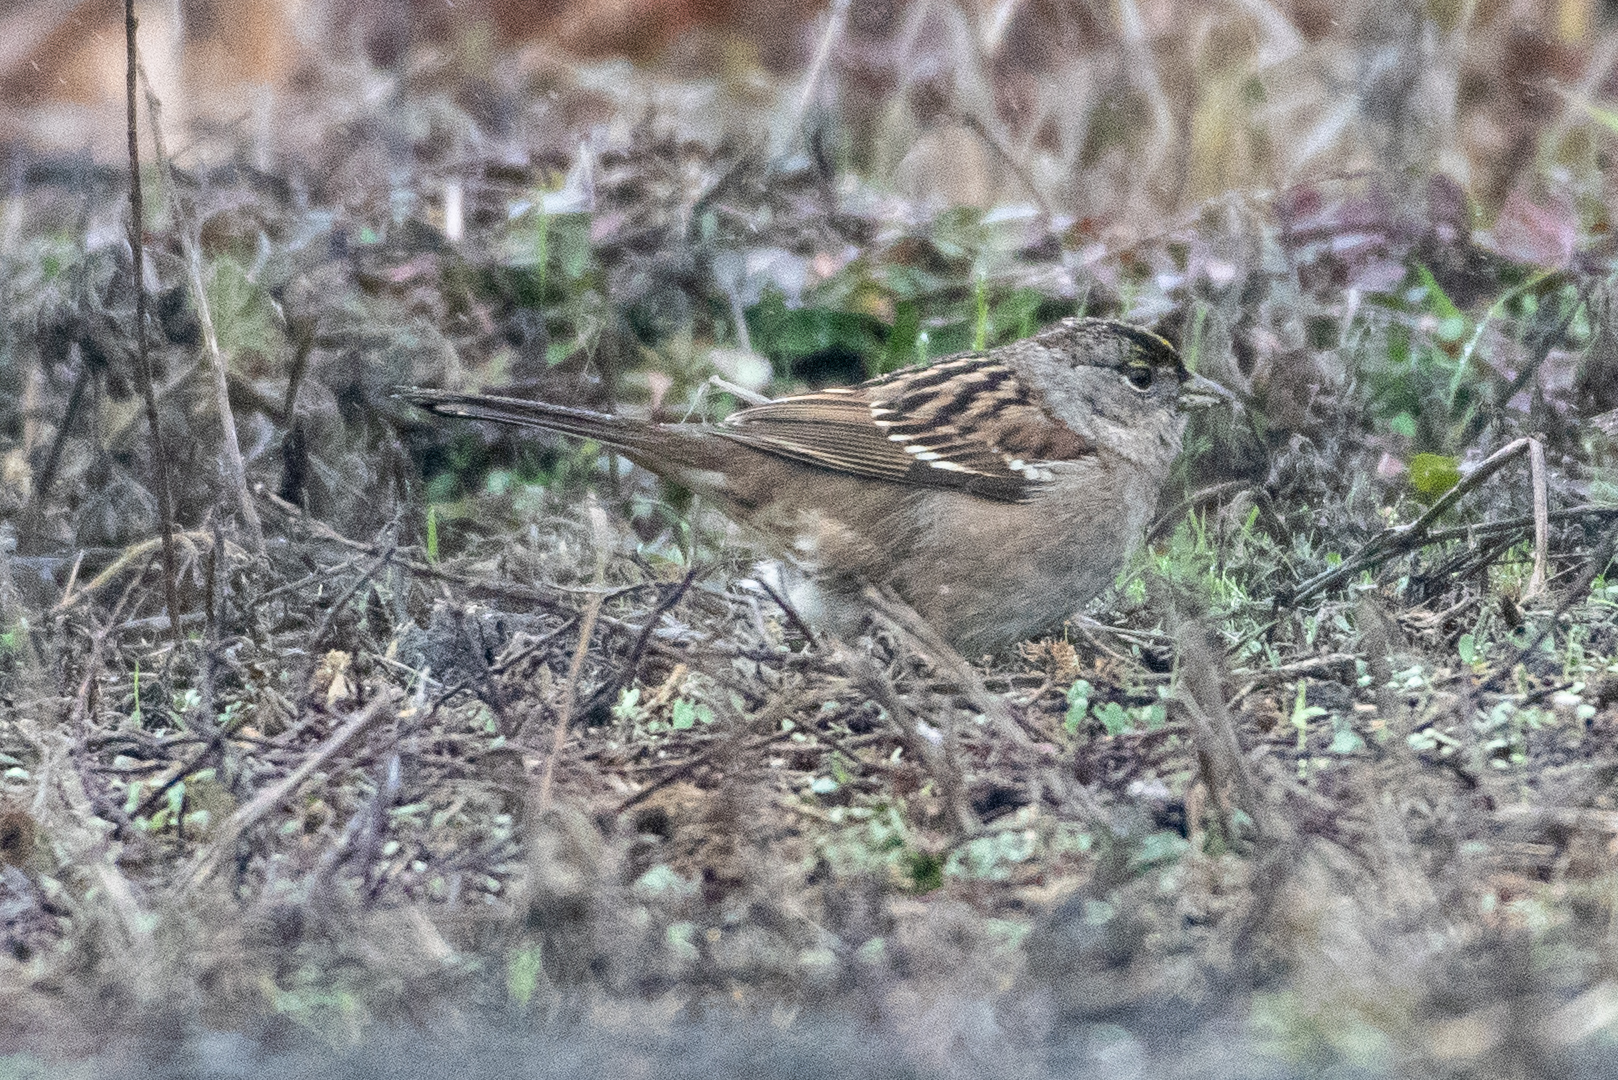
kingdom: Animalia
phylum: Chordata
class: Aves
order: Passeriformes
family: Passerellidae
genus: Zonotrichia
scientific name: Zonotrichia atricapilla
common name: Golden-crowned sparrow
